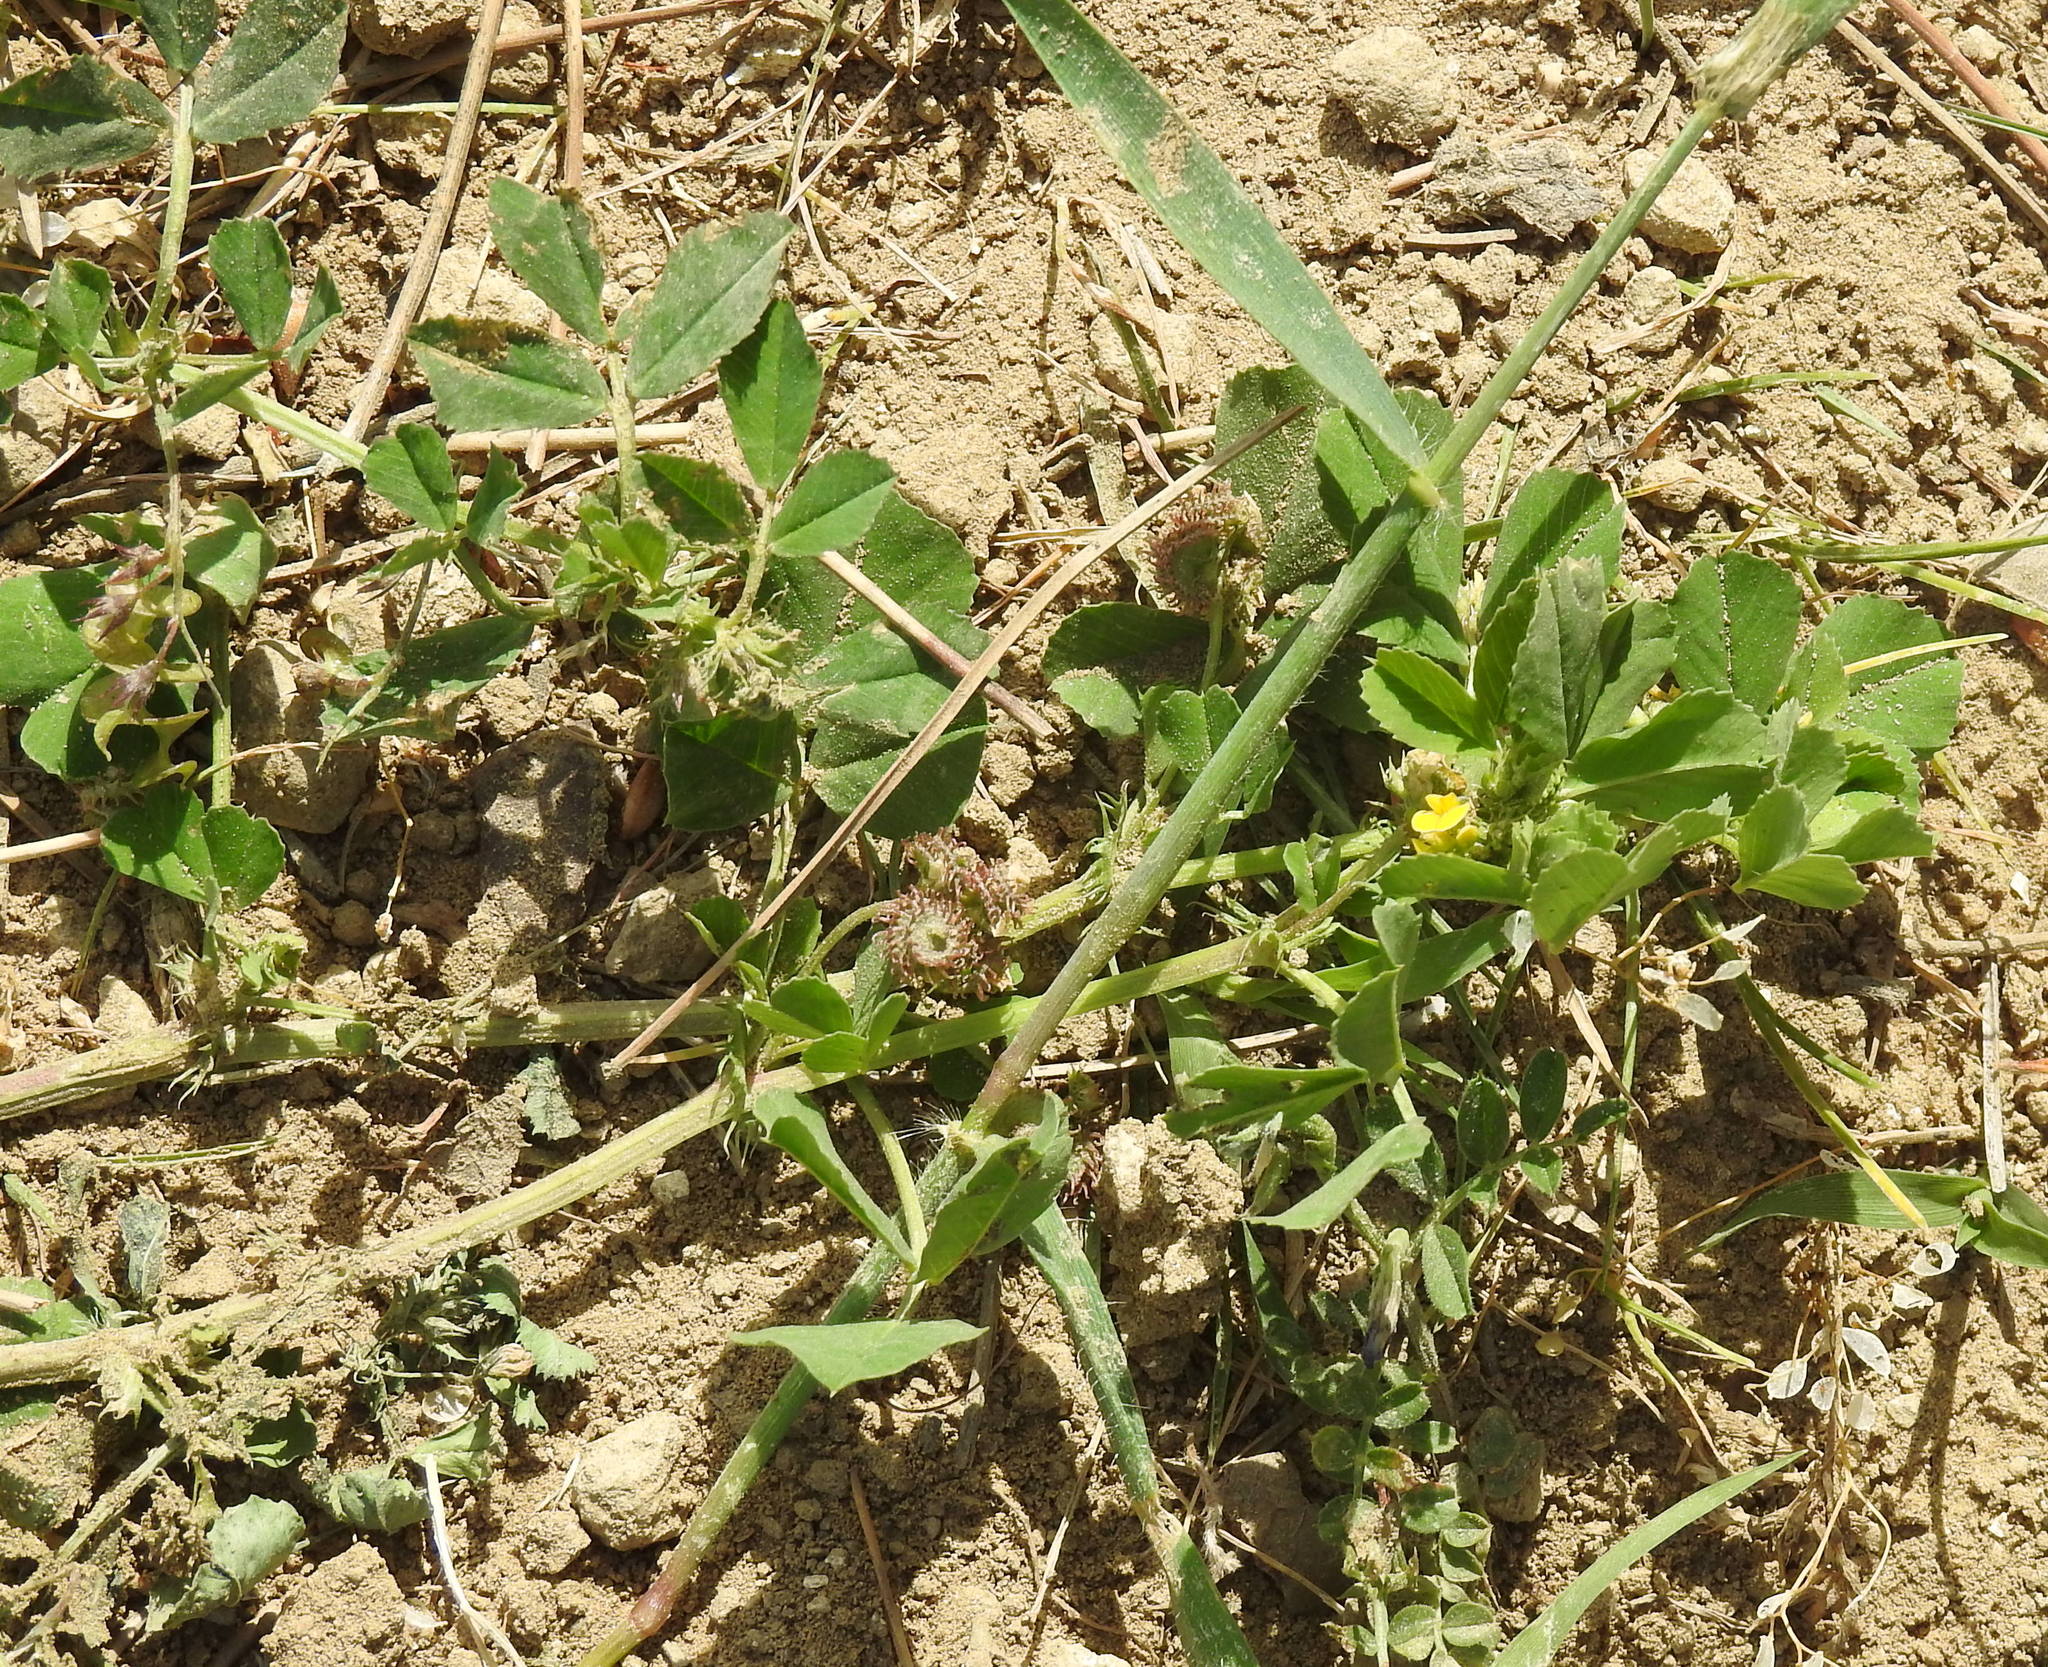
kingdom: Plantae
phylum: Tracheophyta
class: Magnoliopsida
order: Fabales
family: Fabaceae
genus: Medicago
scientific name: Medicago orbicularis
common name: Button medick
